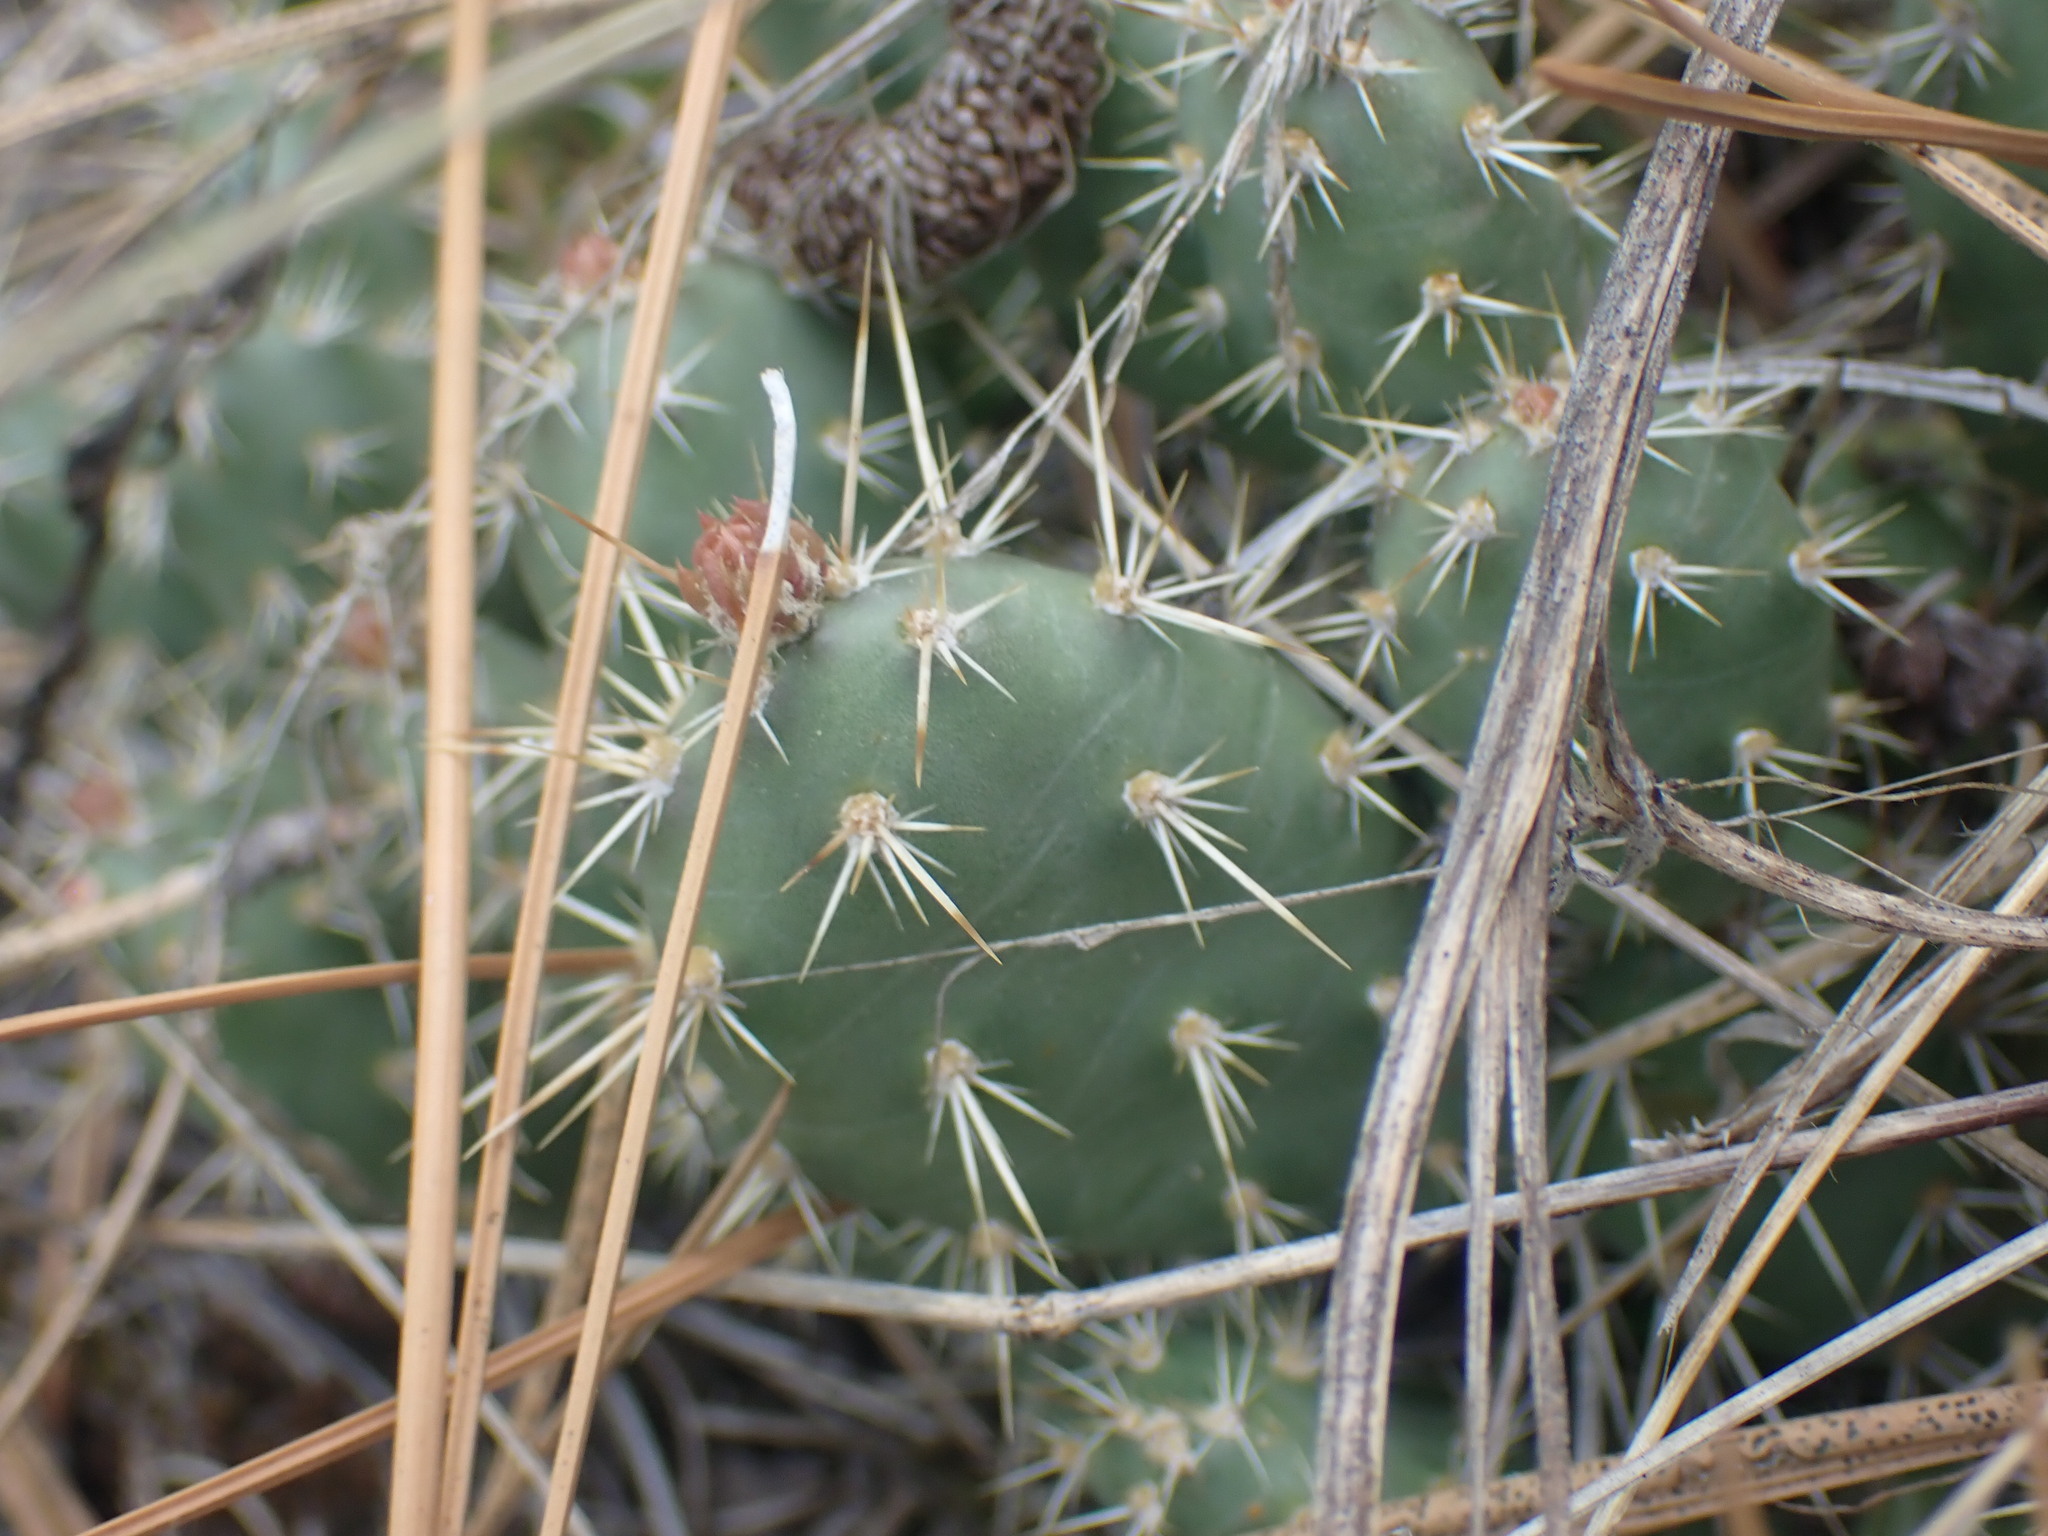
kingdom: Plantae
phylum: Tracheophyta
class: Magnoliopsida
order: Caryophyllales
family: Cactaceae
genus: Opuntia
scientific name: Opuntia fragilis
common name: Brittle cactus
